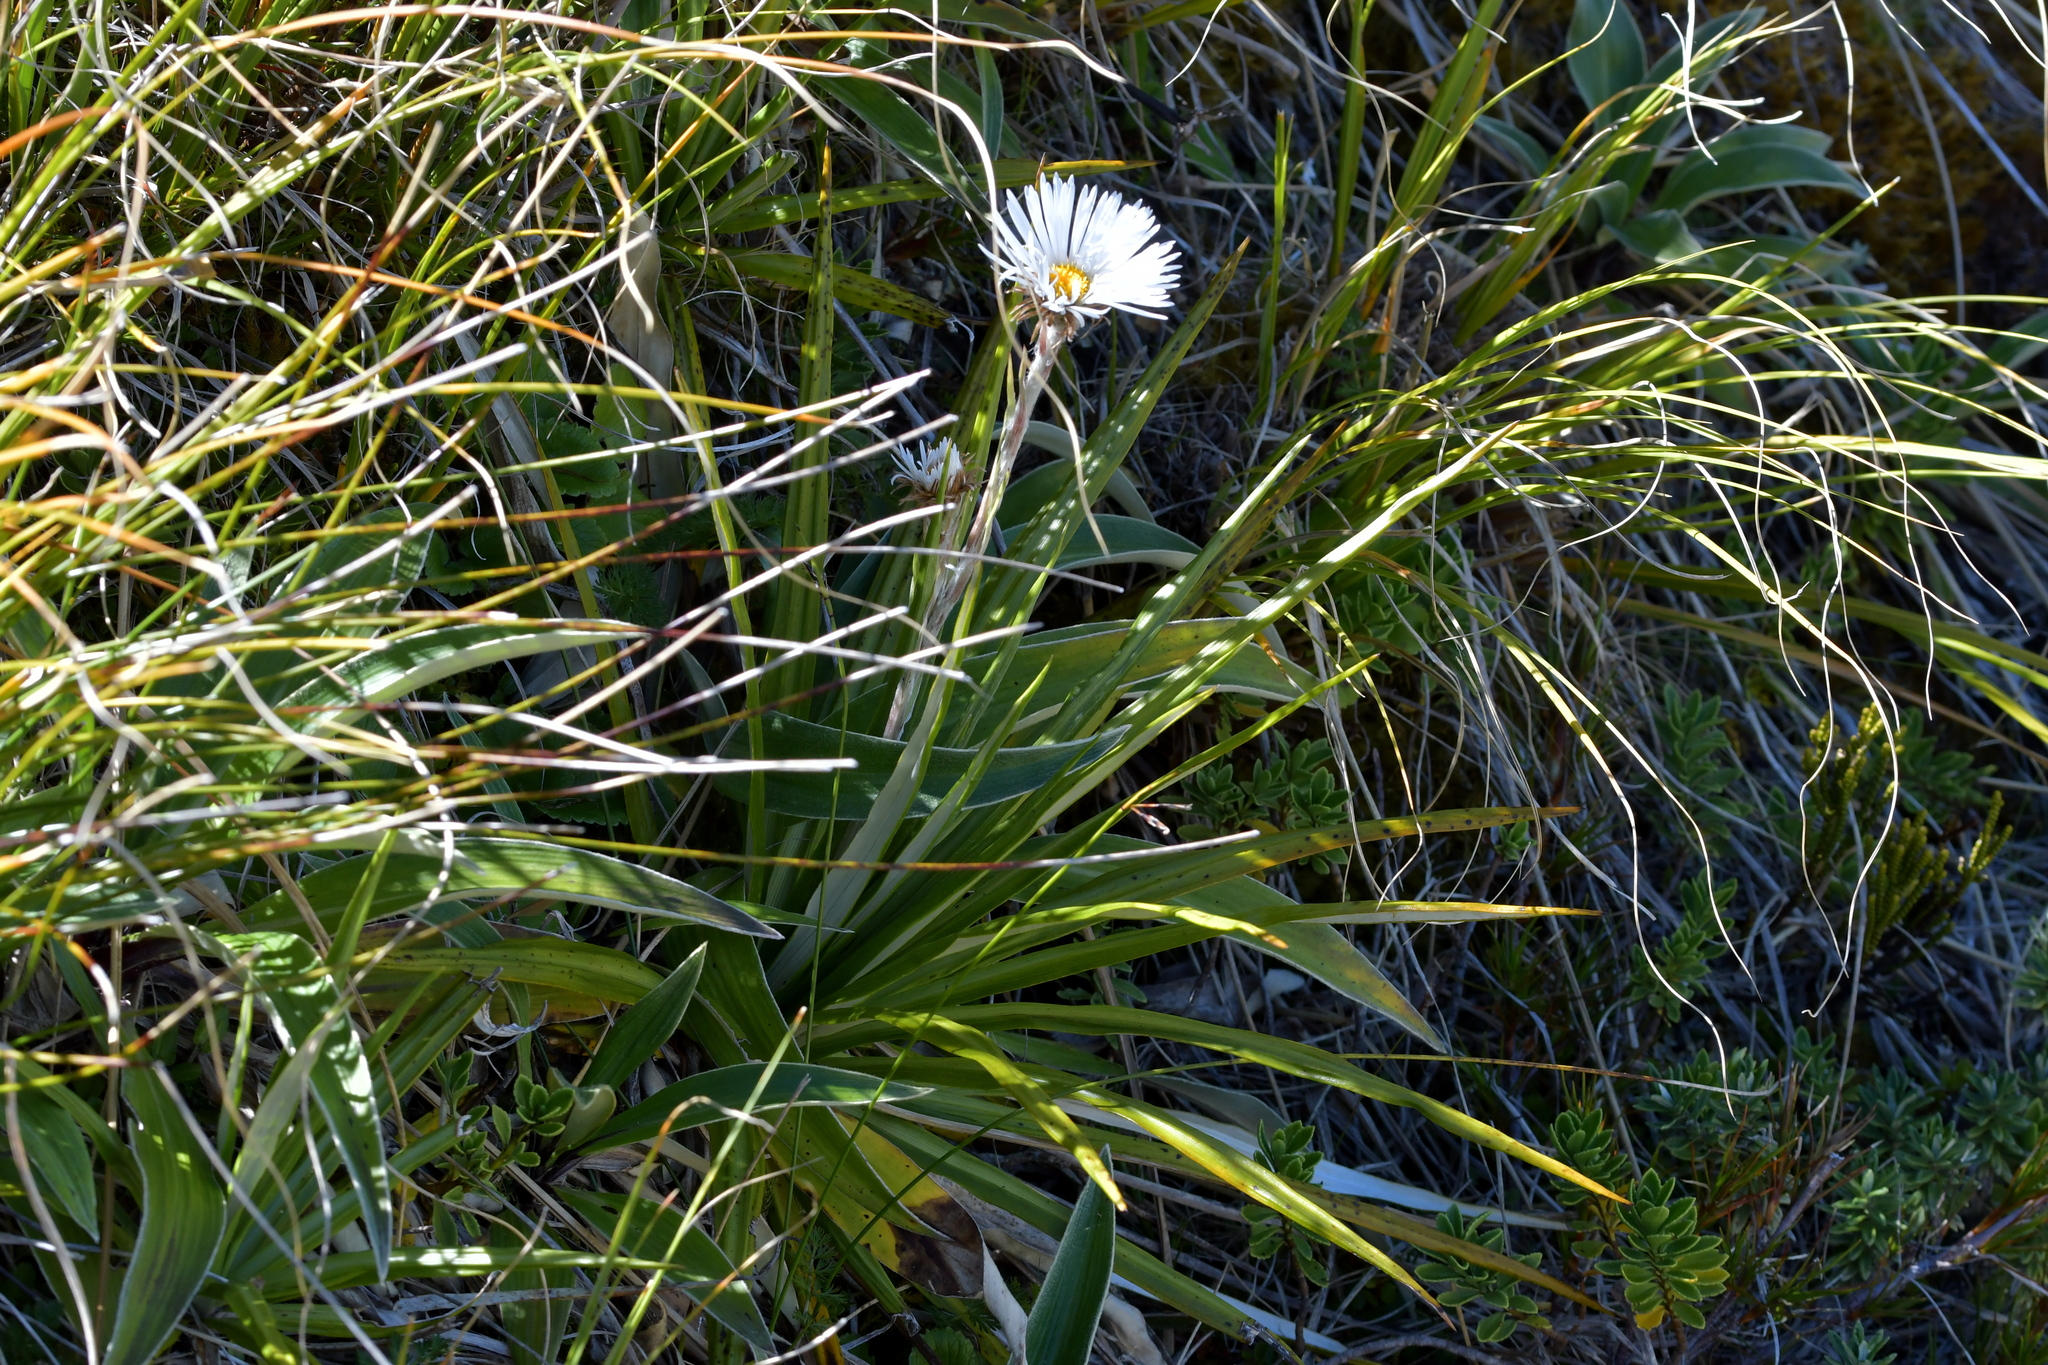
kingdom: Plantae
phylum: Tracheophyta
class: Magnoliopsida
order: Asterales
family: Asteraceae
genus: Celmisia
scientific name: Celmisia petriei
